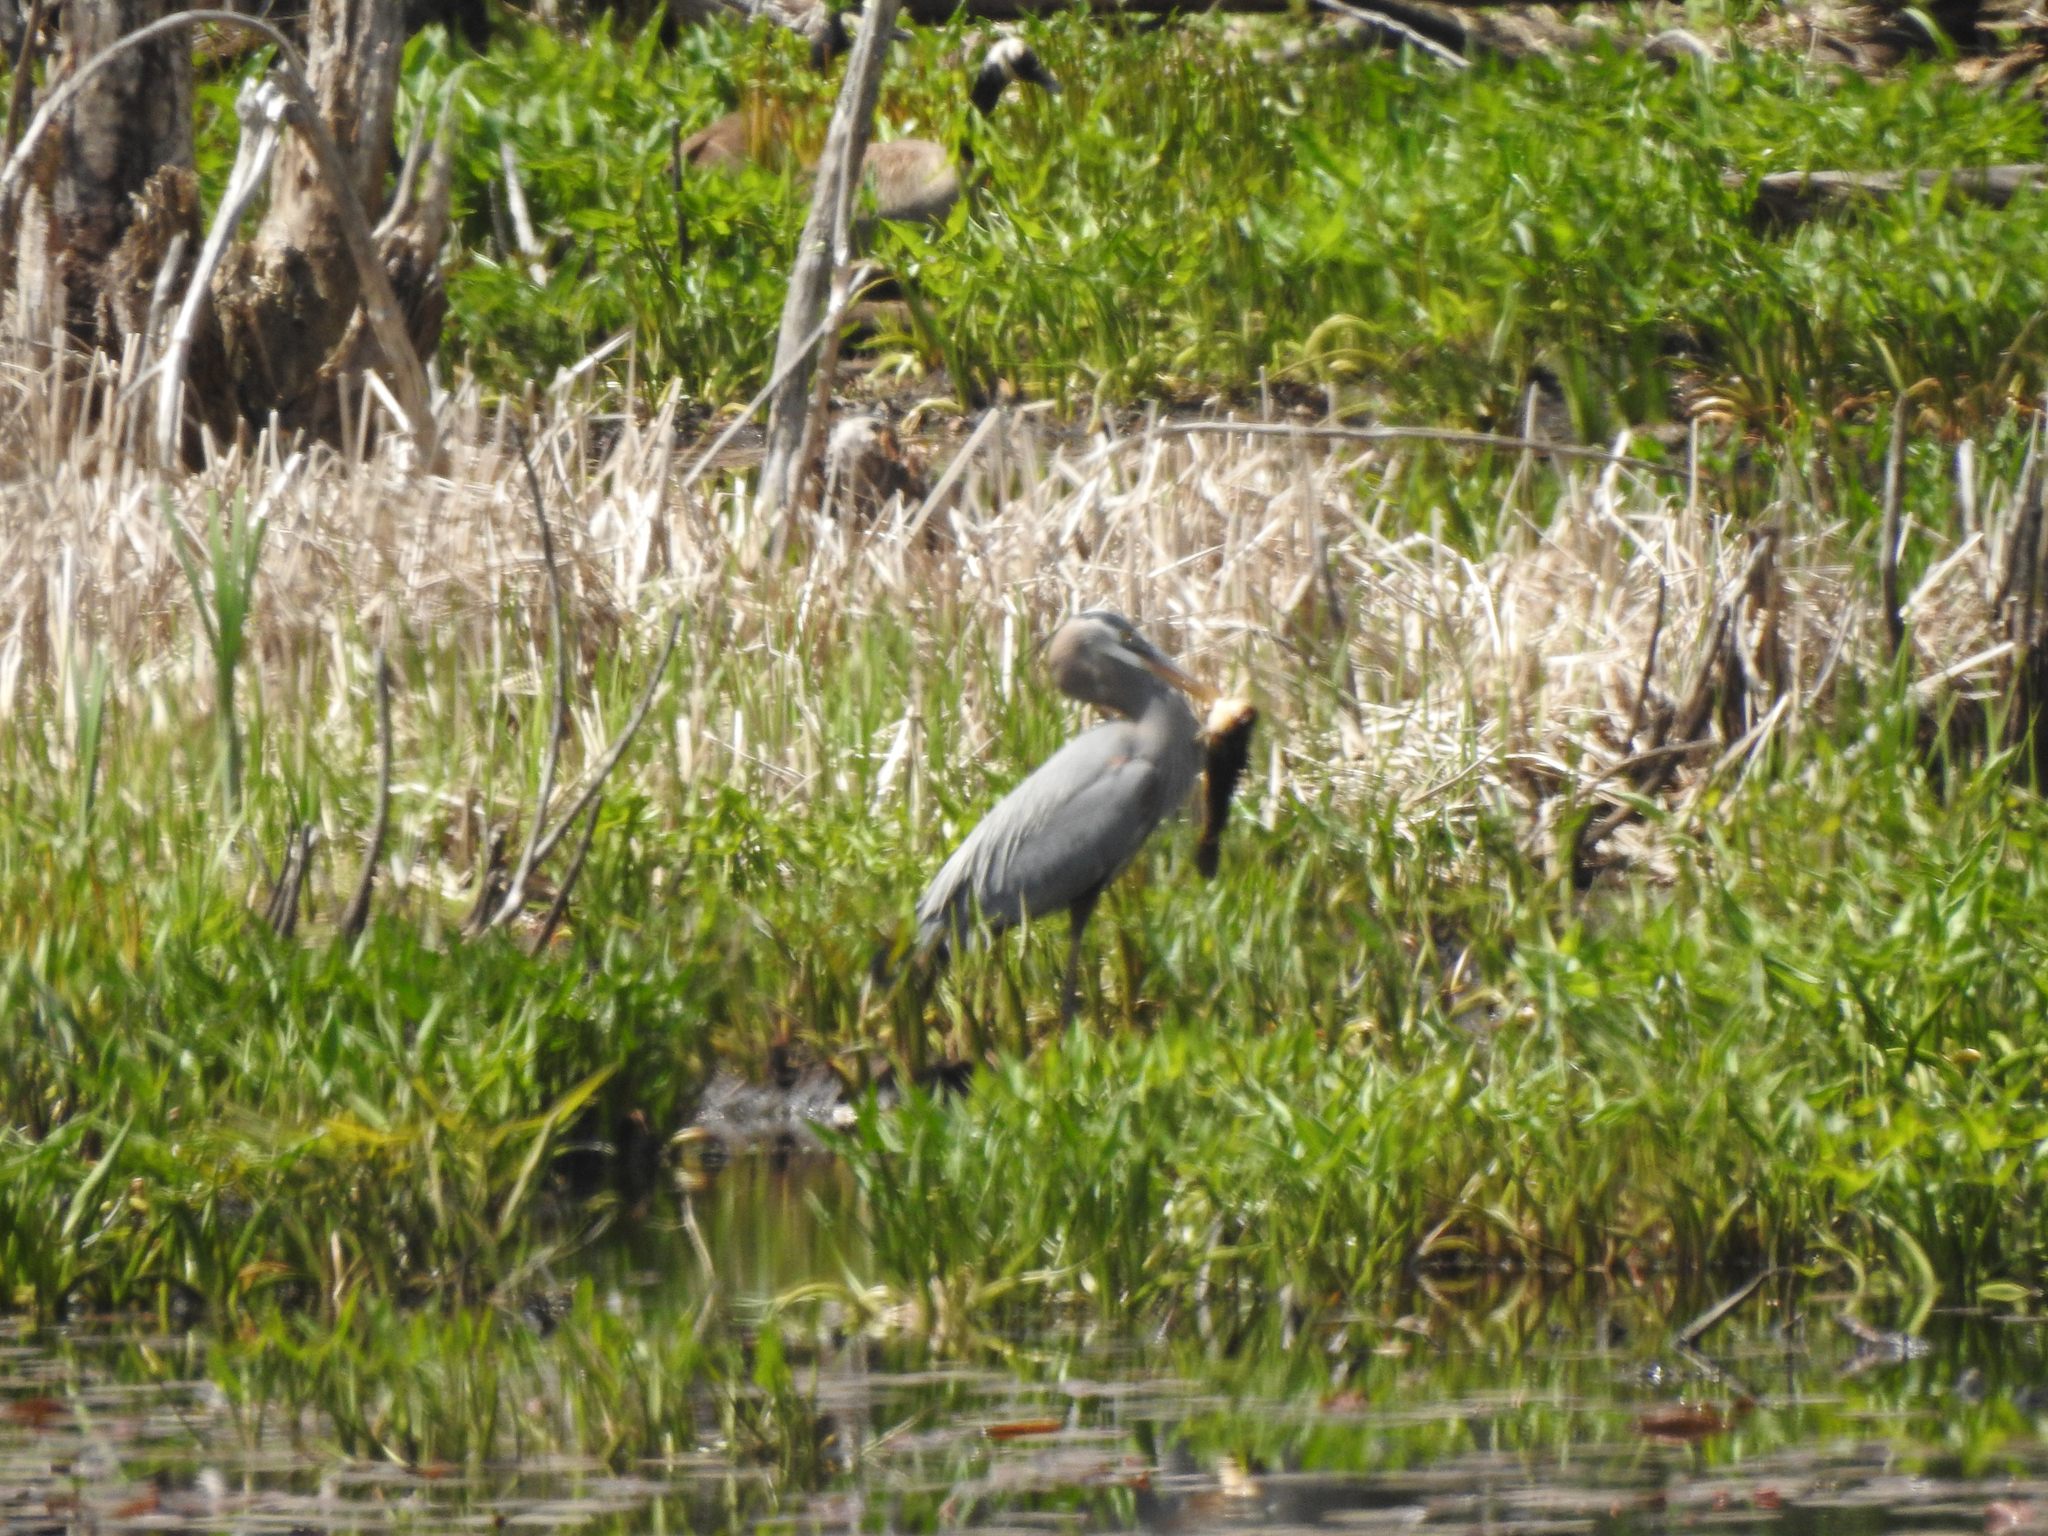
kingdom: Animalia
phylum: Chordata
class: Aves
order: Pelecaniformes
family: Ardeidae
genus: Ardea
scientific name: Ardea herodias
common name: Great blue heron
